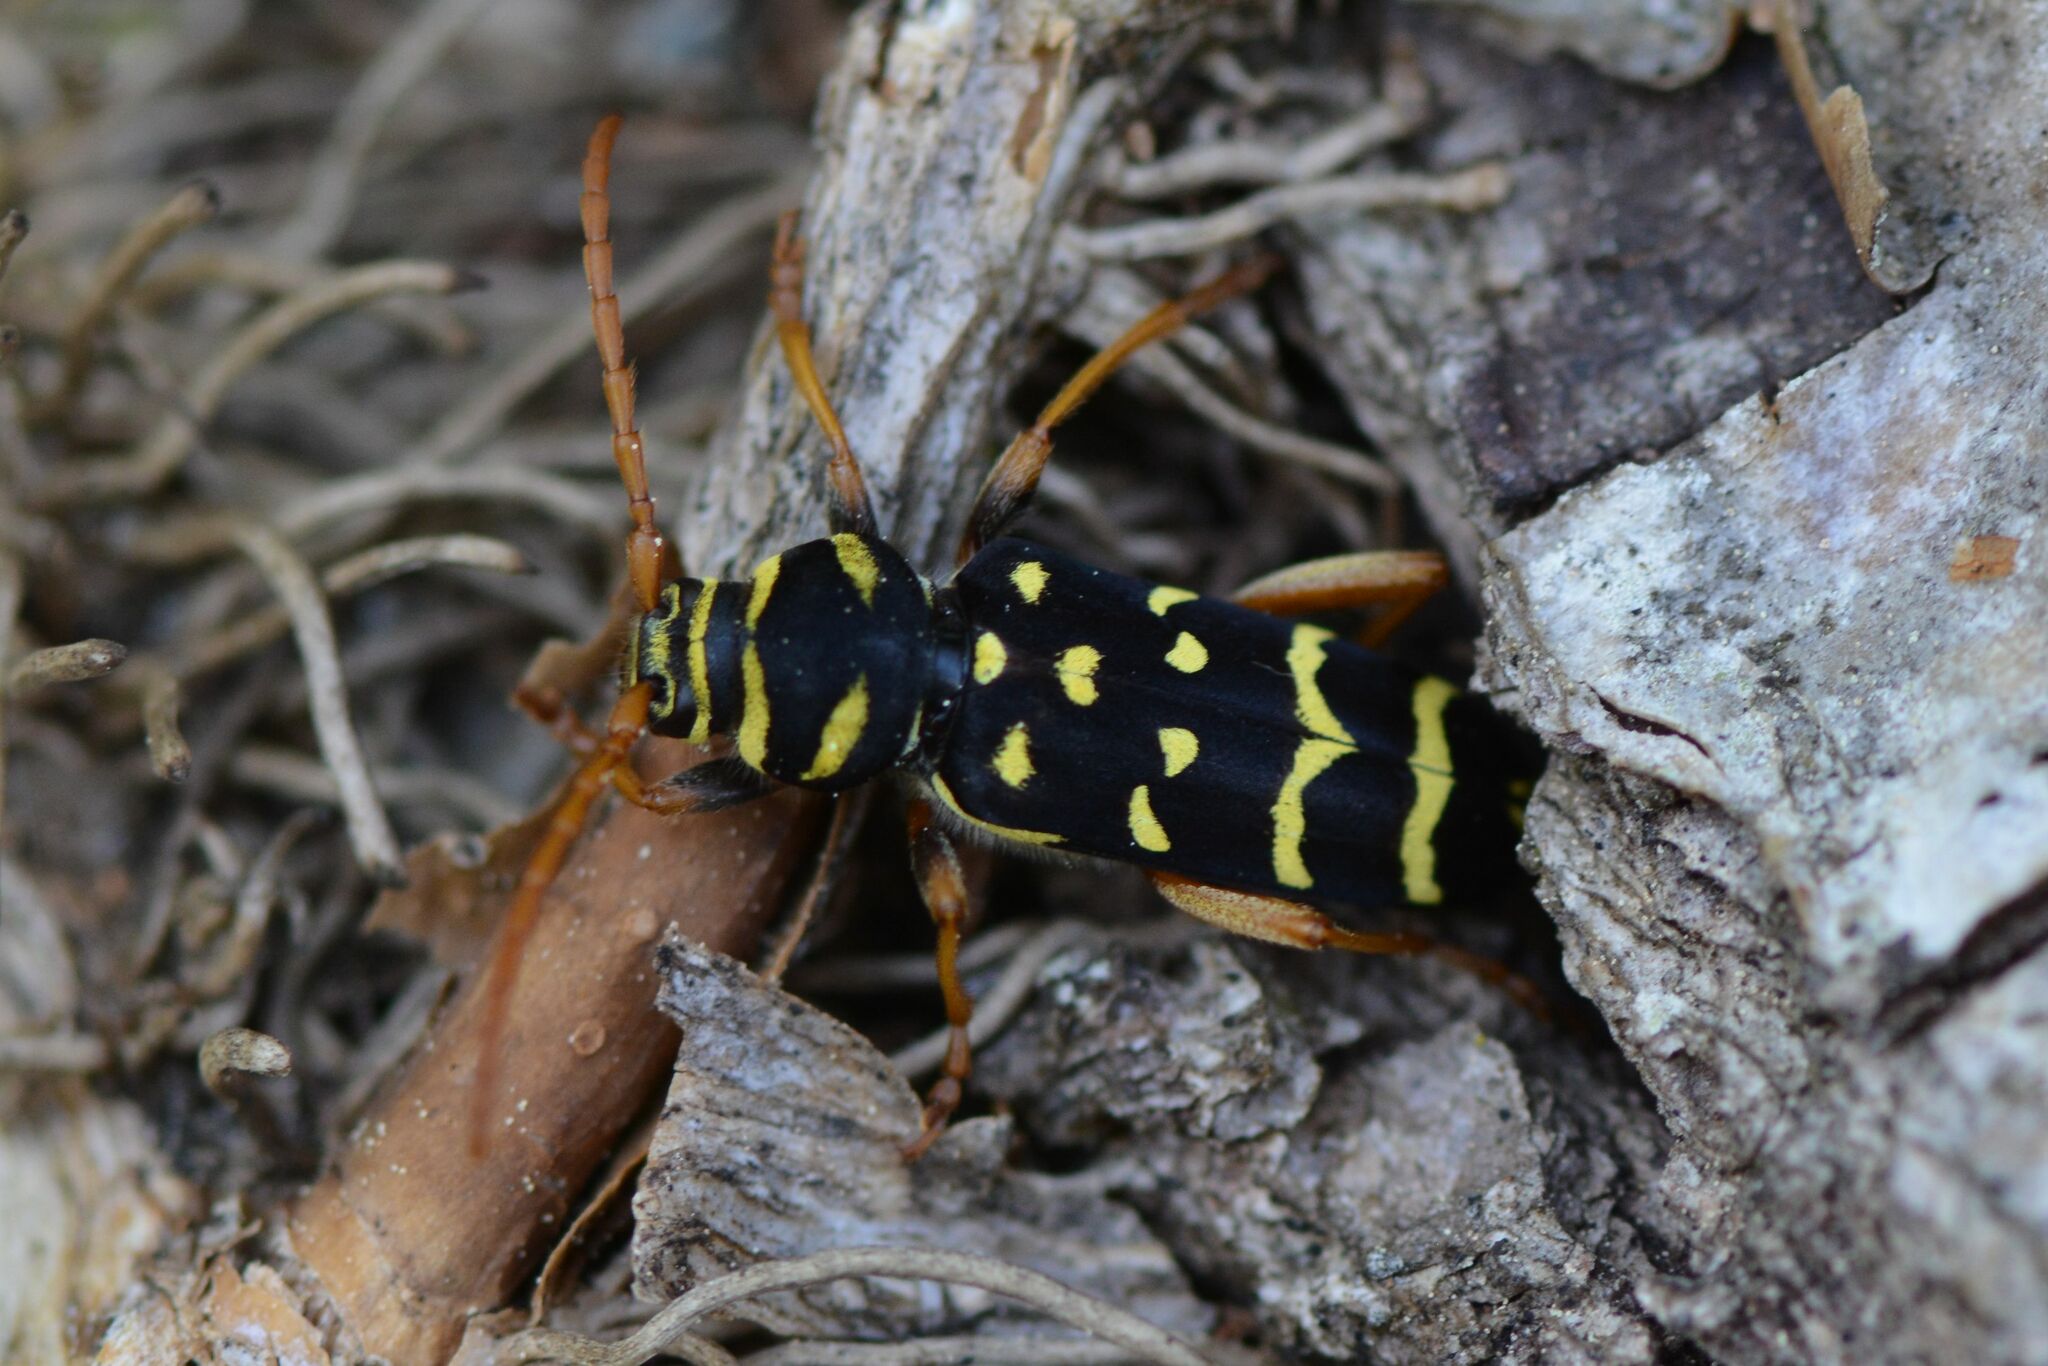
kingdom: Animalia
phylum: Arthropoda
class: Insecta
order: Coleoptera
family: Cerambycidae
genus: Plagionotus
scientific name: Plagionotus arcuatus
